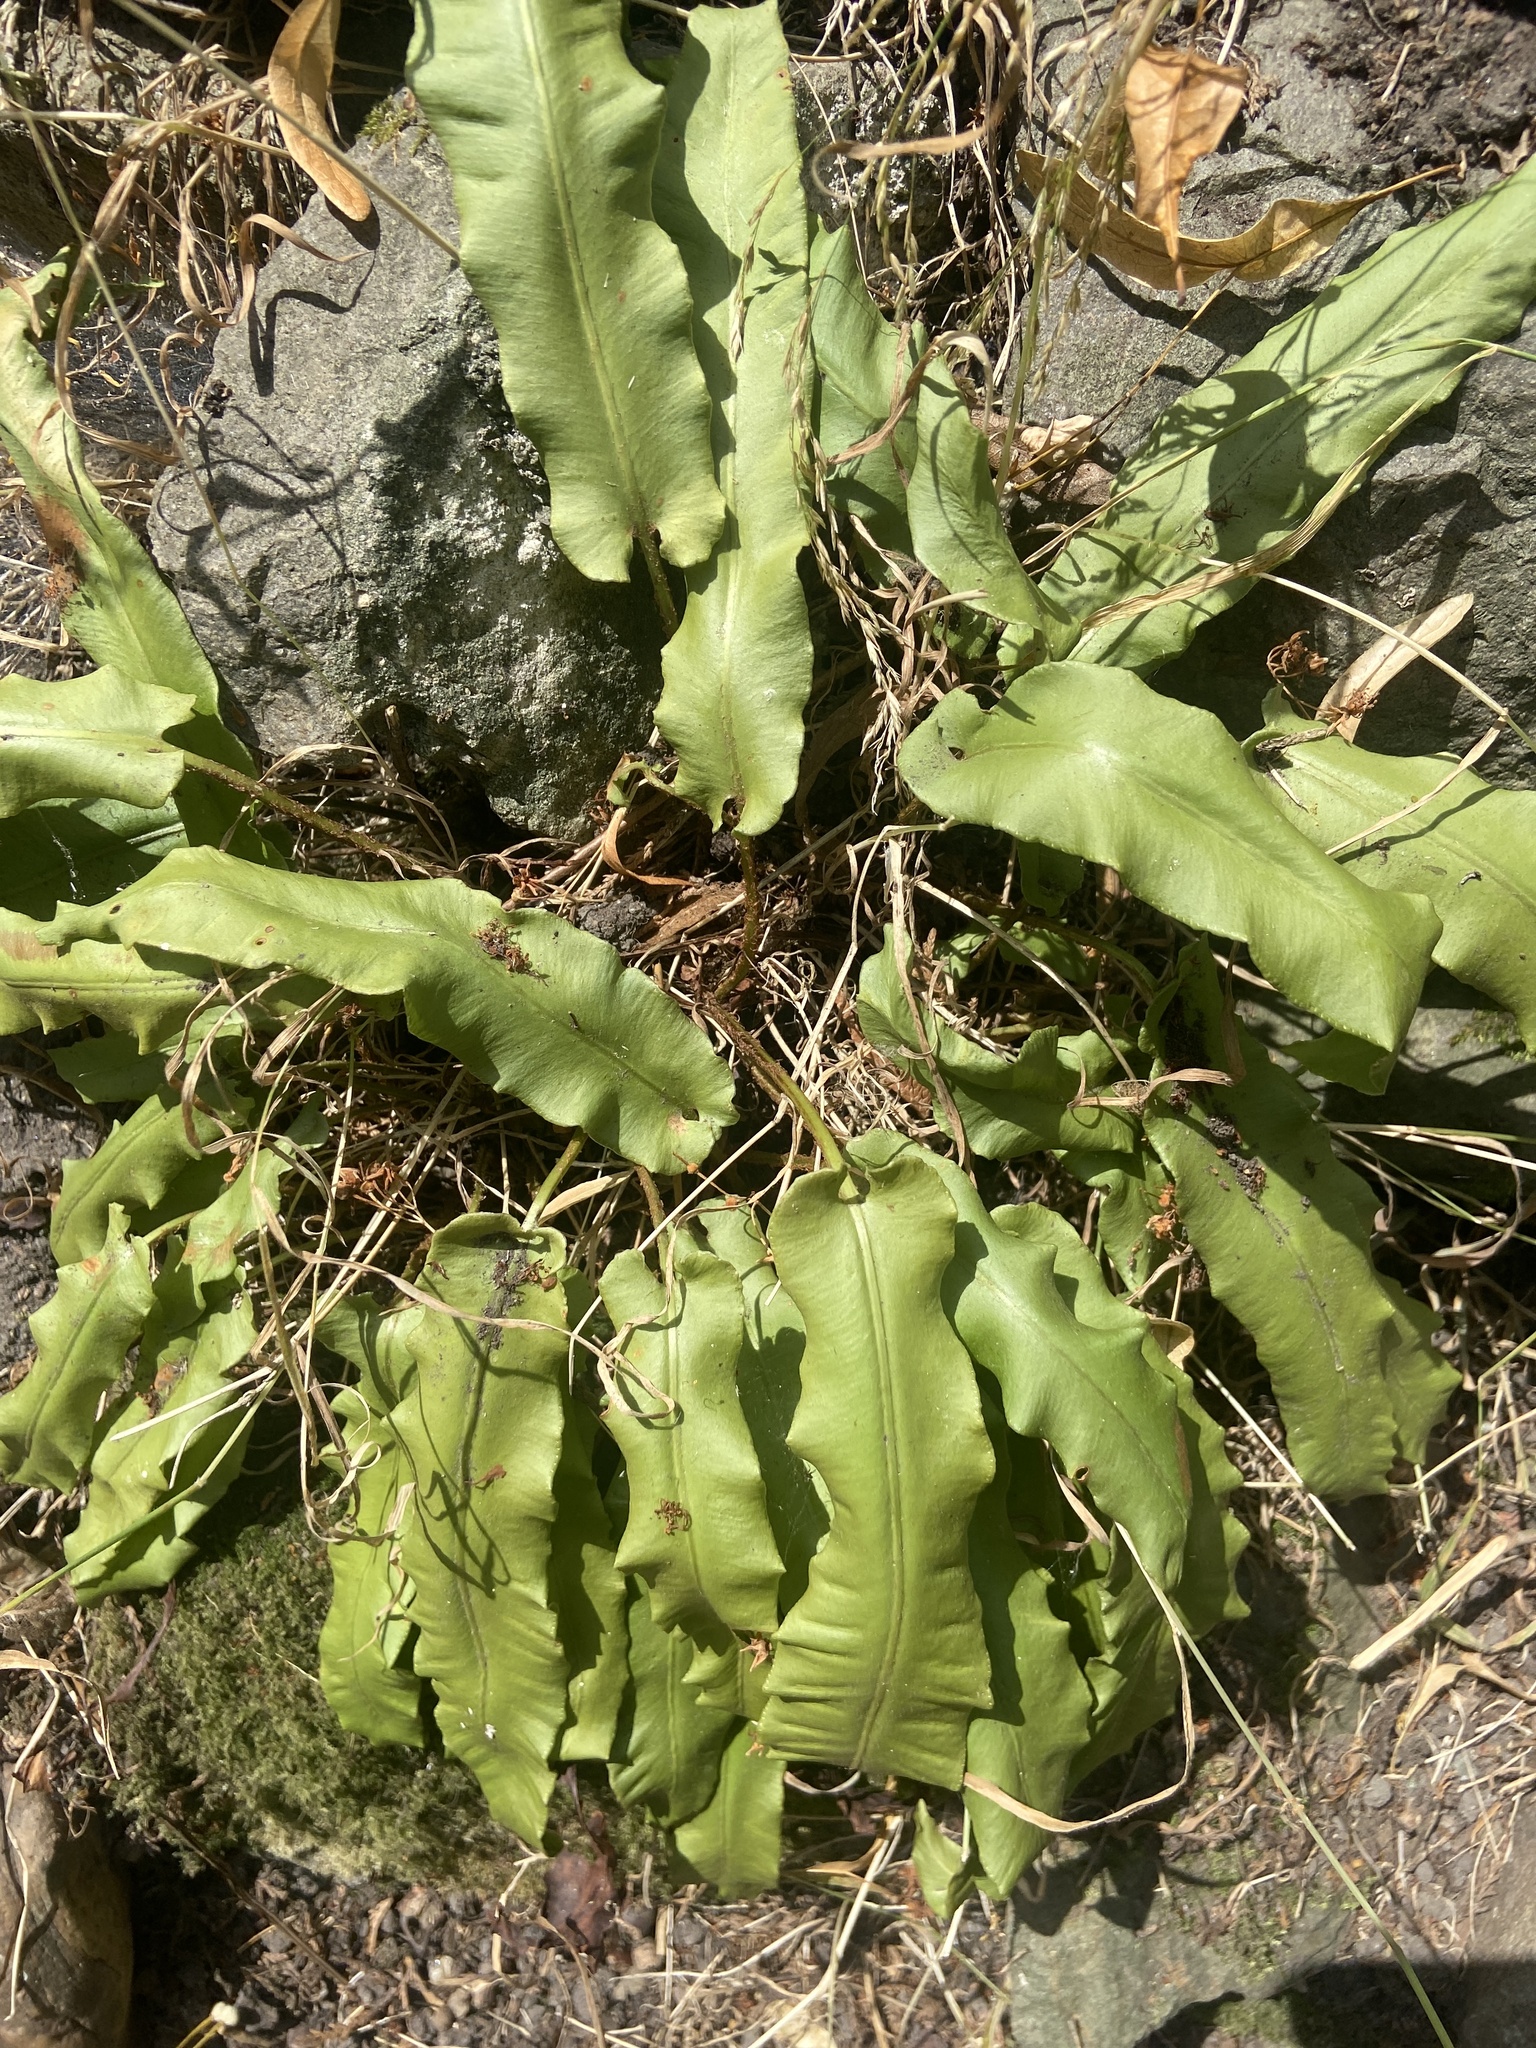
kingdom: Plantae
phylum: Tracheophyta
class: Polypodiopsida
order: Polypodiales
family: Aspleniaceae
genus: Asplenium
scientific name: Asplenium scolopendrium
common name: Hart's-tongue fern
